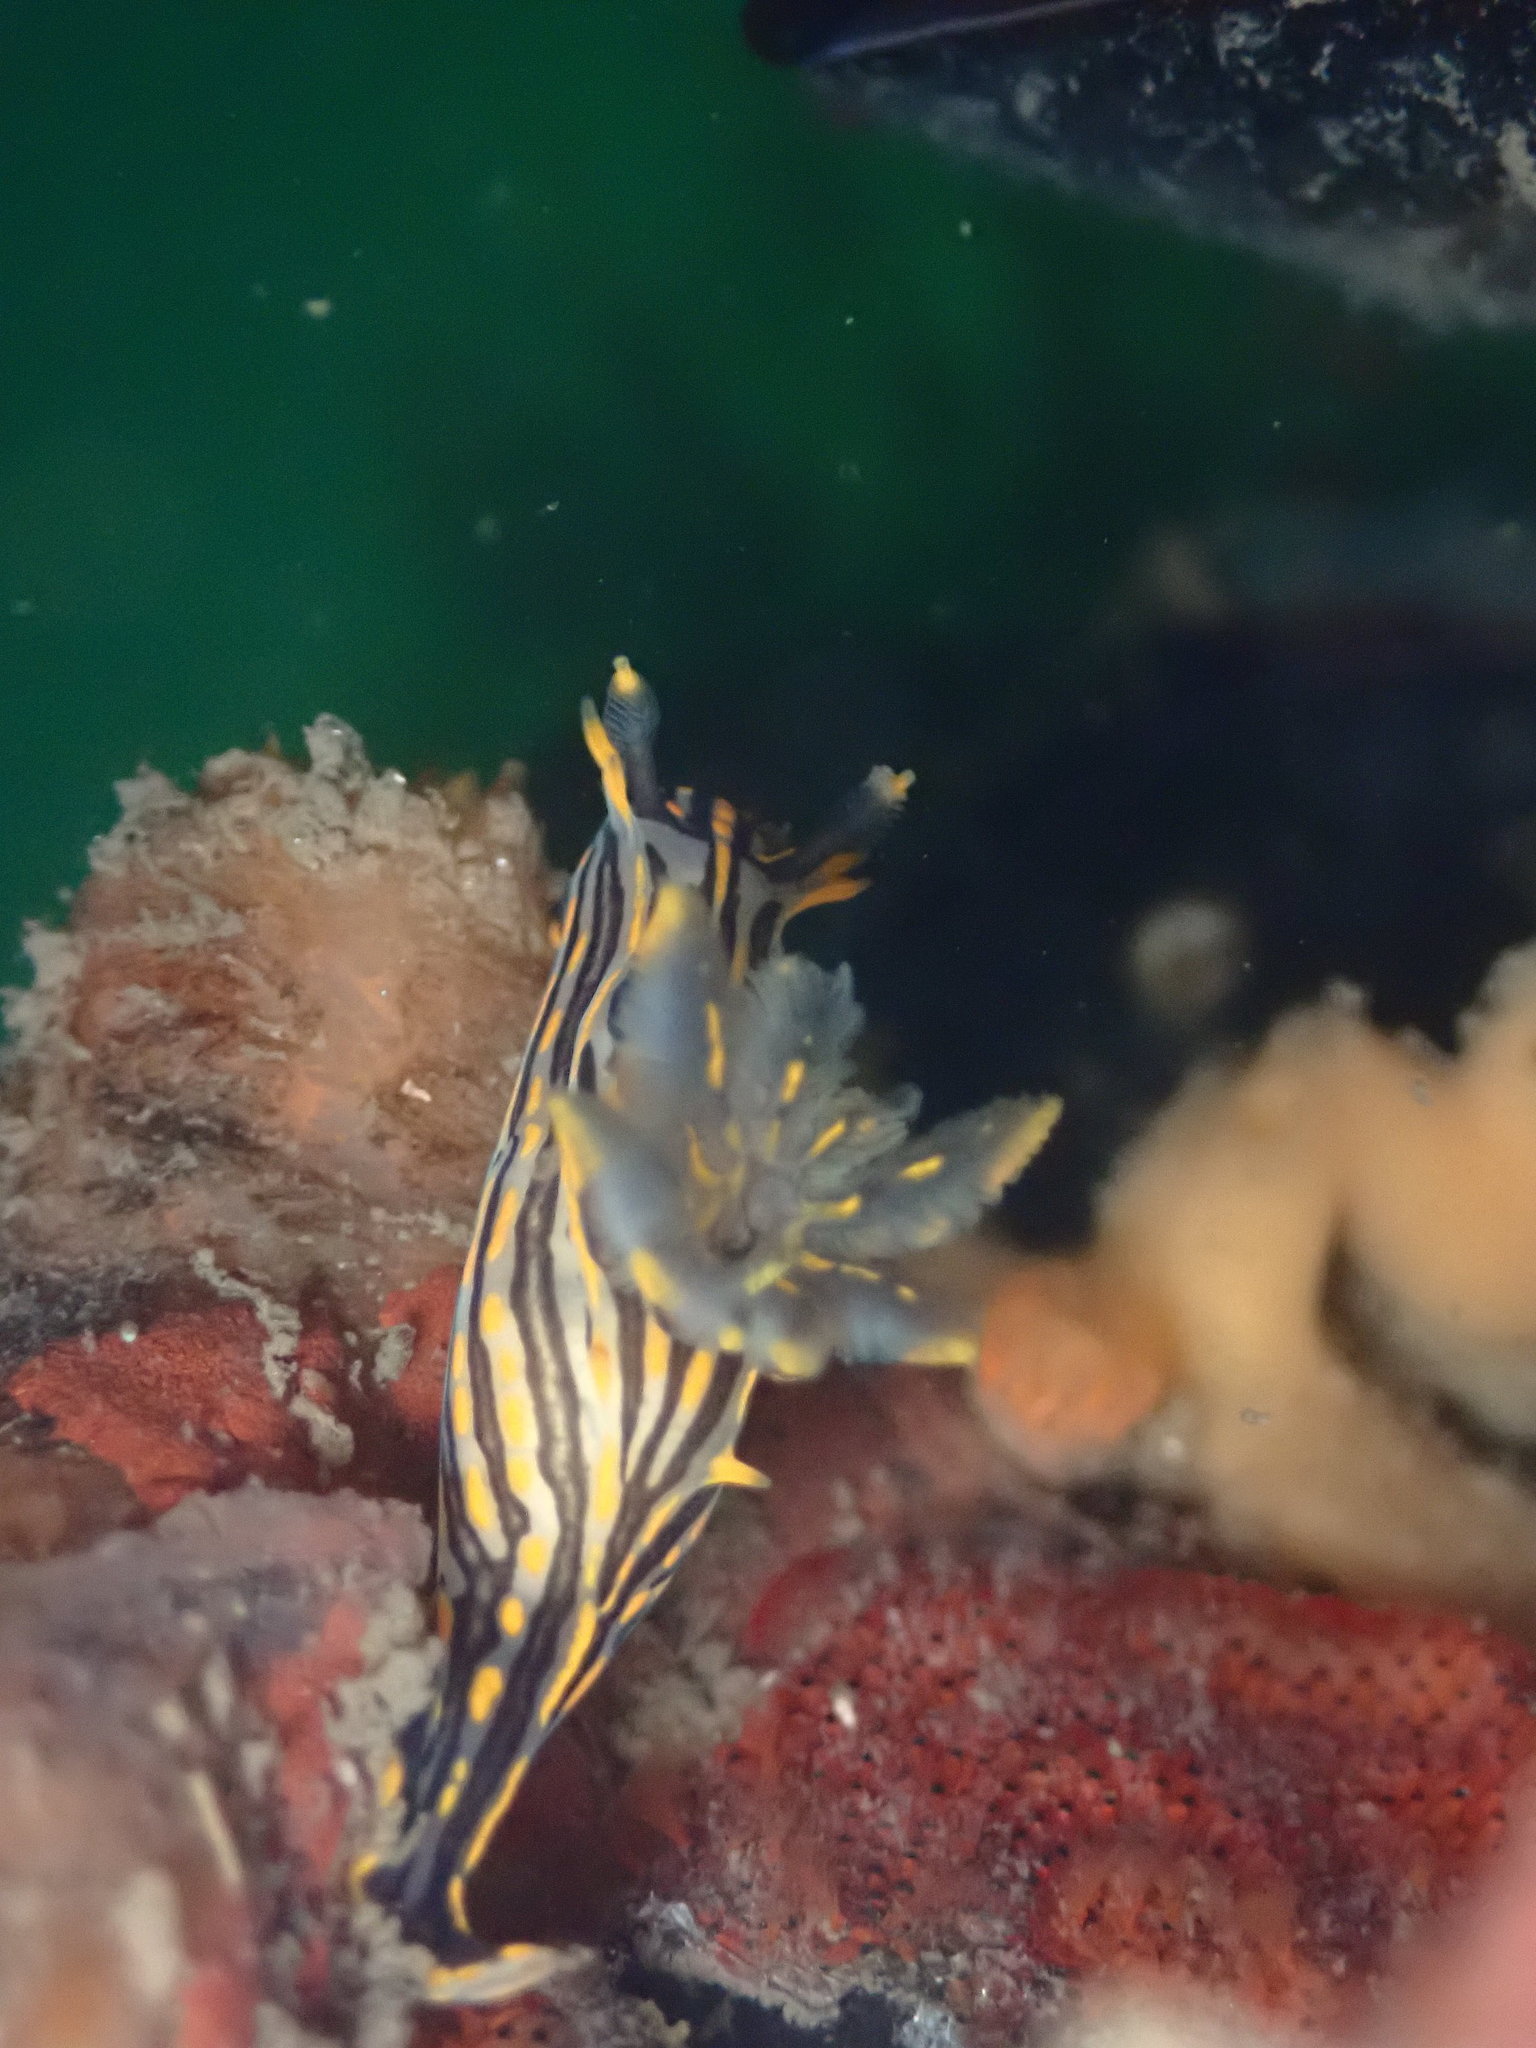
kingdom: Animalia
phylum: Mollusca
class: Gastropoda
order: Nudibranchia
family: Polyceridae
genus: Polycera
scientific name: Polycera atra
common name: Orange-spike polycera
